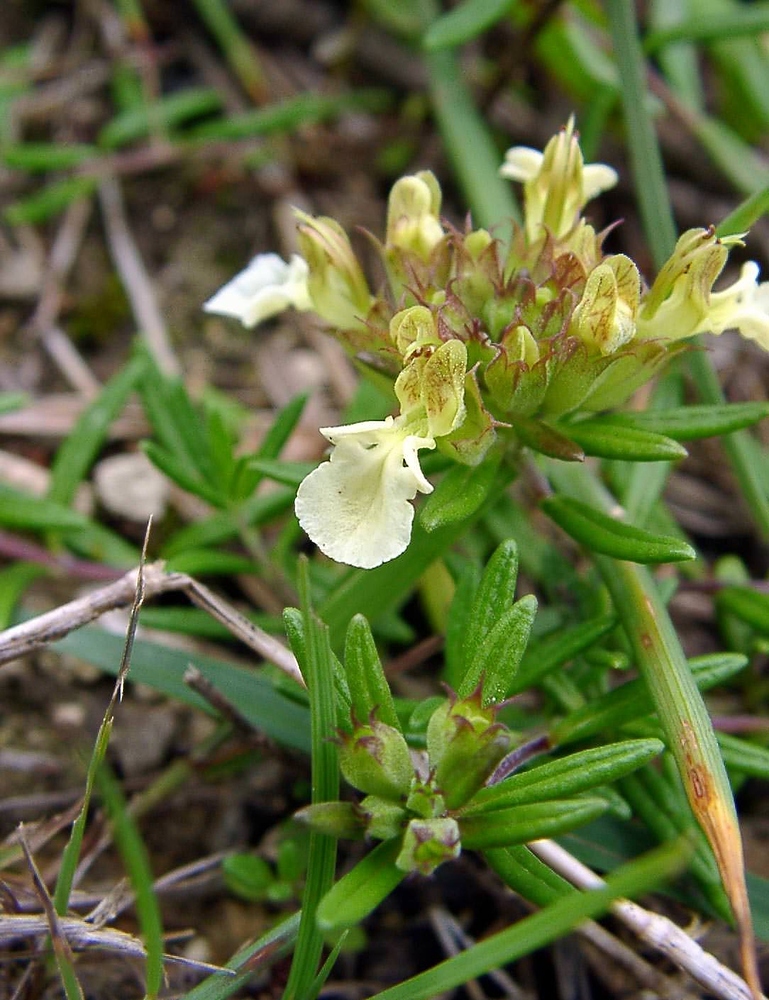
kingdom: Plantae
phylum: Tracheophyta
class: Magnoliopsida
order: Lamiales
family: Lamiaceae
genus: Teucrium
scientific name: Teucrium montanum
